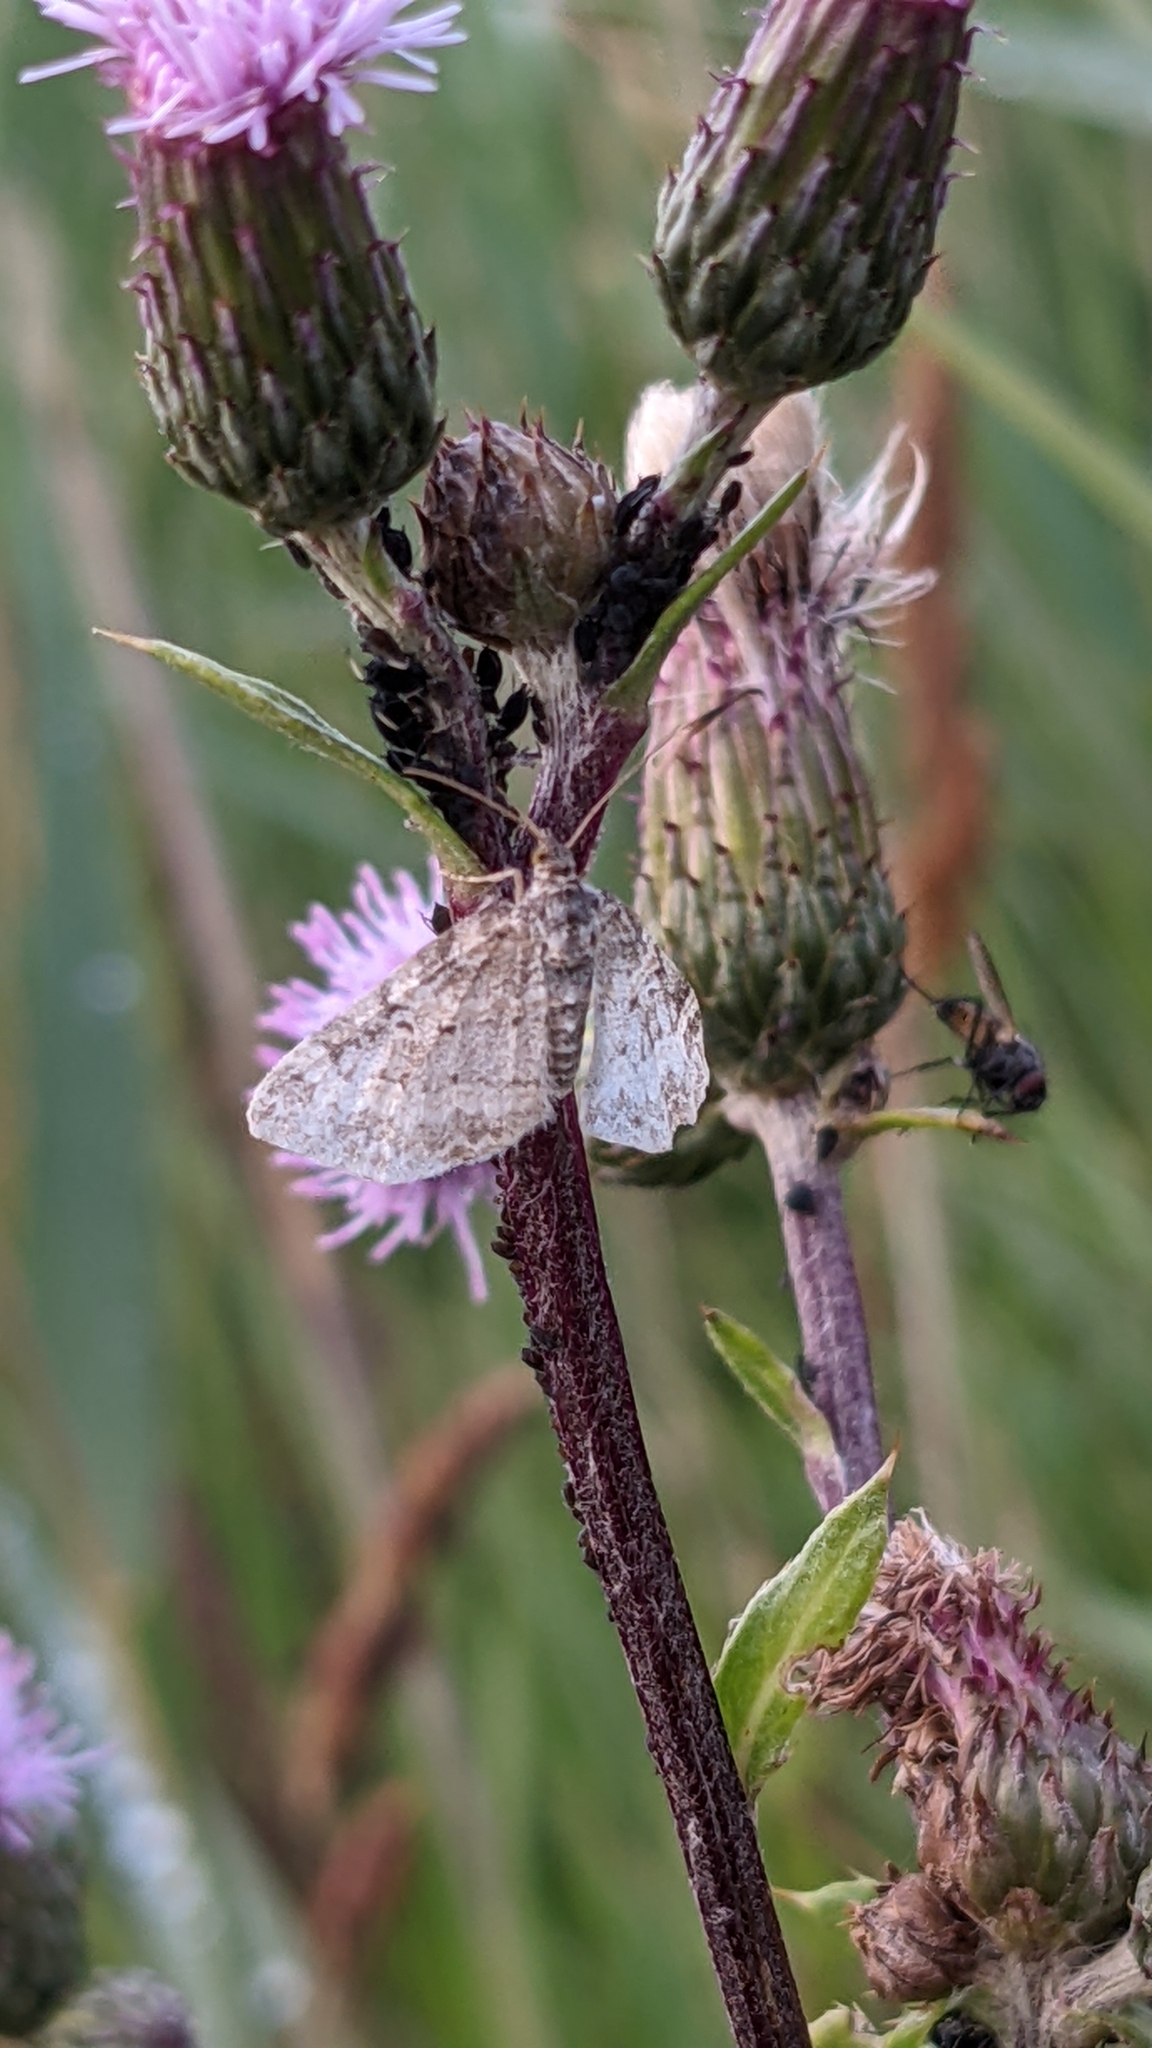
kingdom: Animalia
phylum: Arthropoda
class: Insecta
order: Lepidoptera
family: Geometridae
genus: Pterapherapteryx
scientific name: Pterapherapteryx sexalata
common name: Small seraphim
